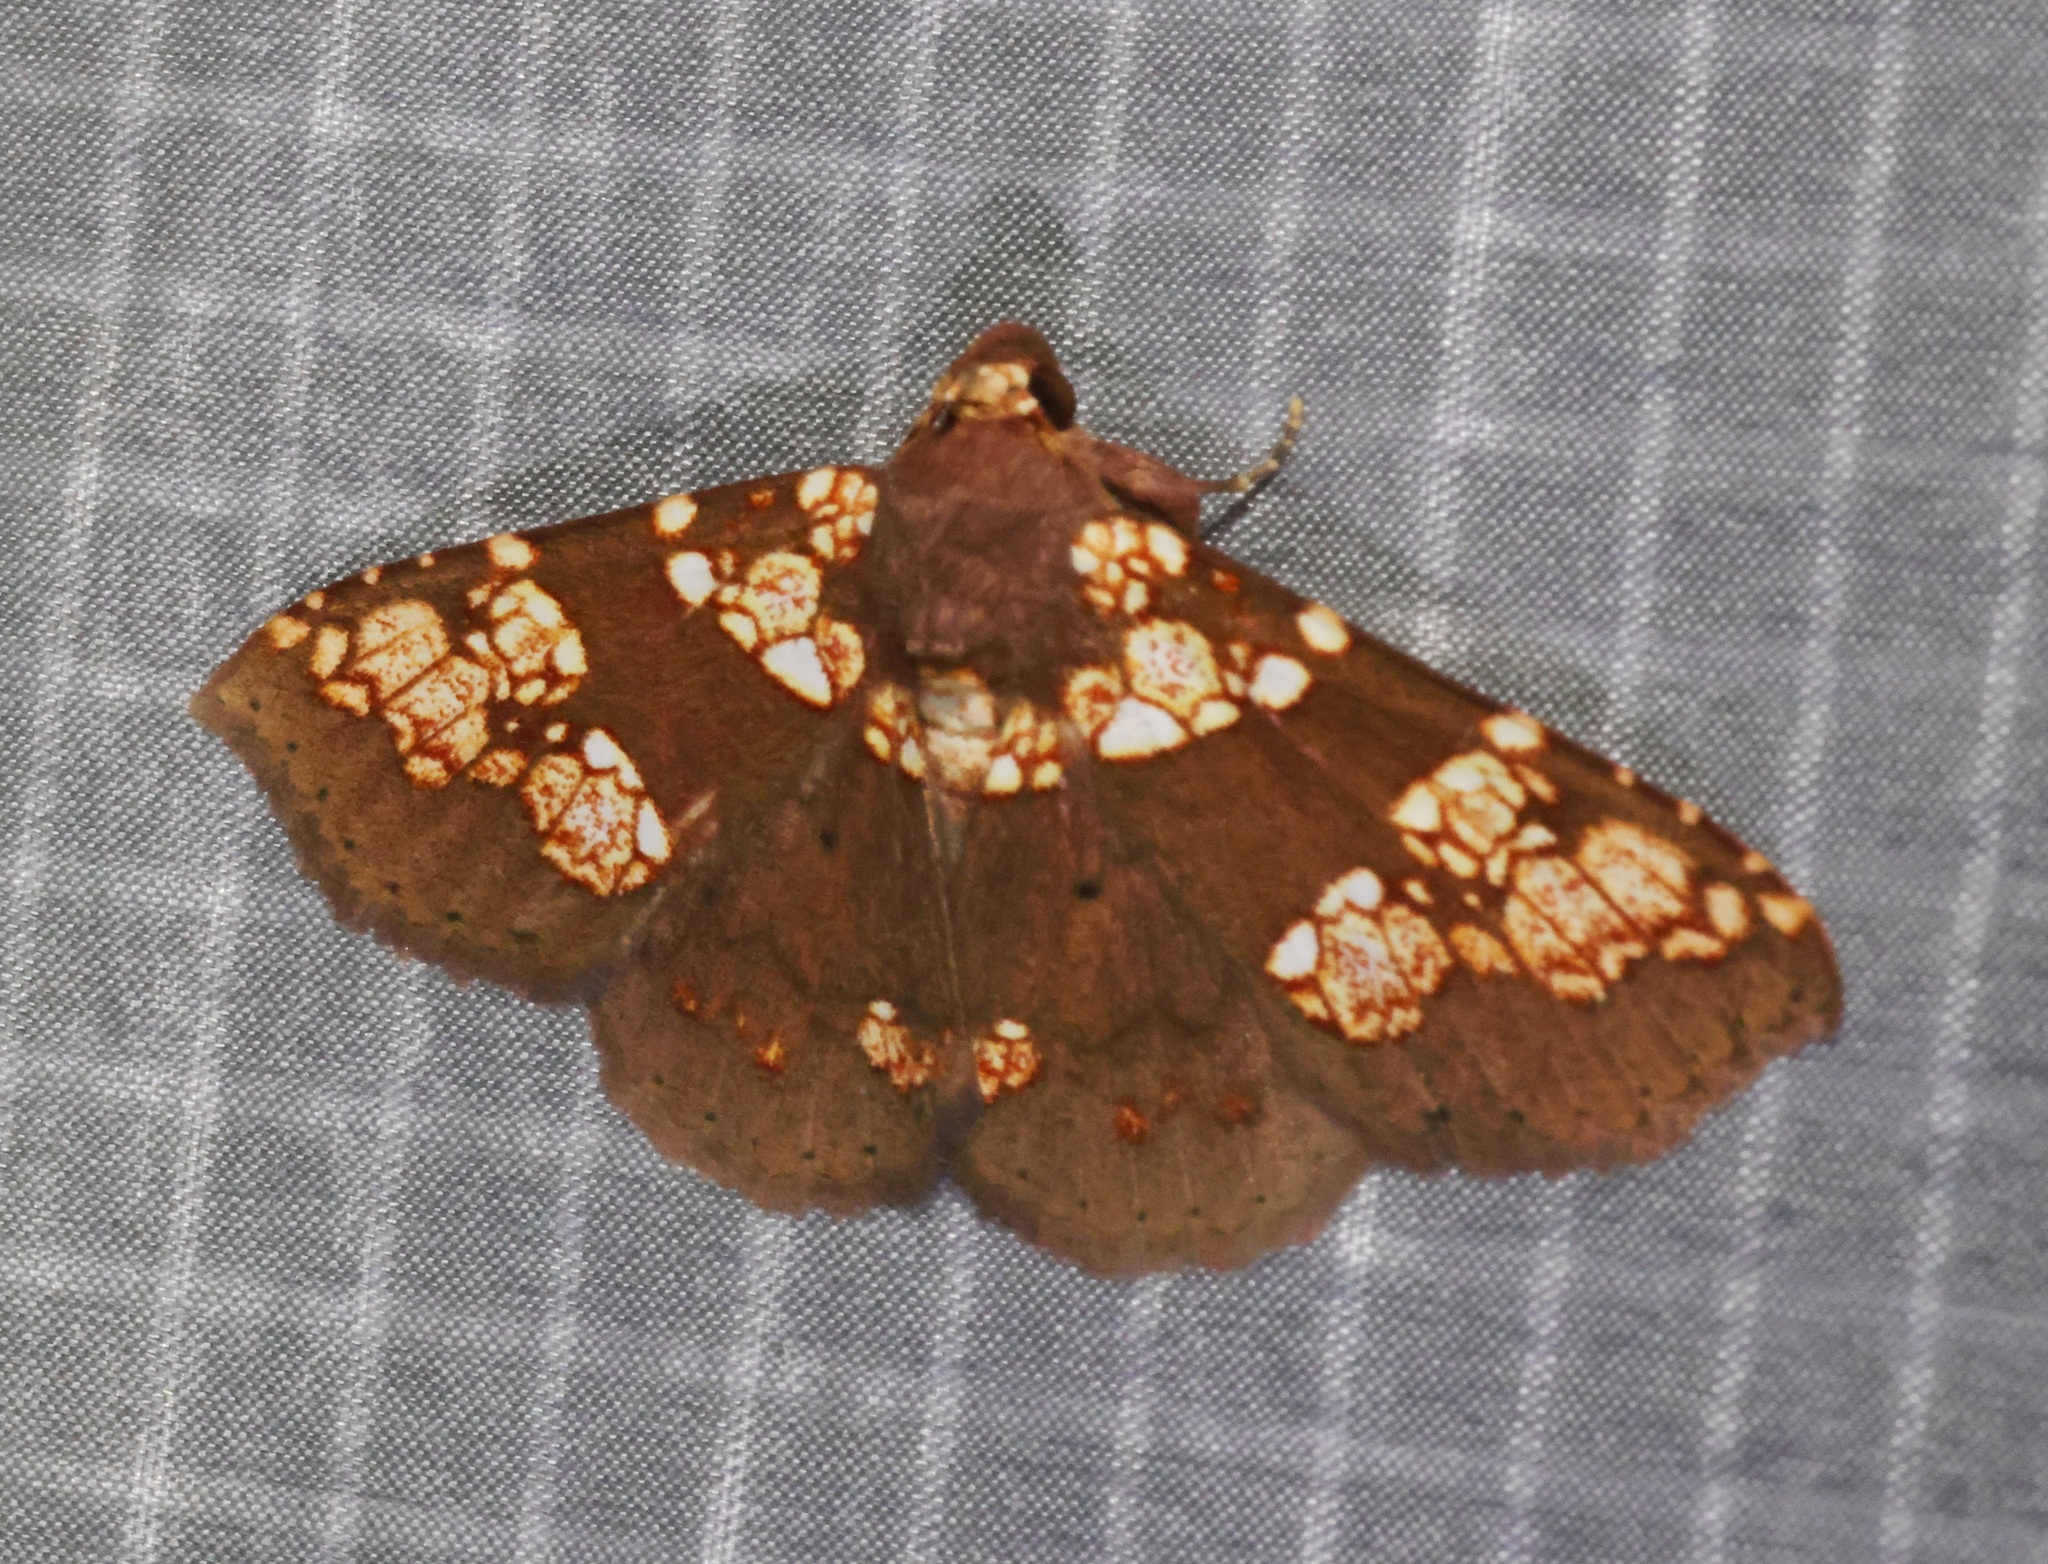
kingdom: Animalia
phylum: Arthropoda
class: Insecta
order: Lepidoptera
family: Erebidae
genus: Saroba
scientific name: Saroba pustulifera
